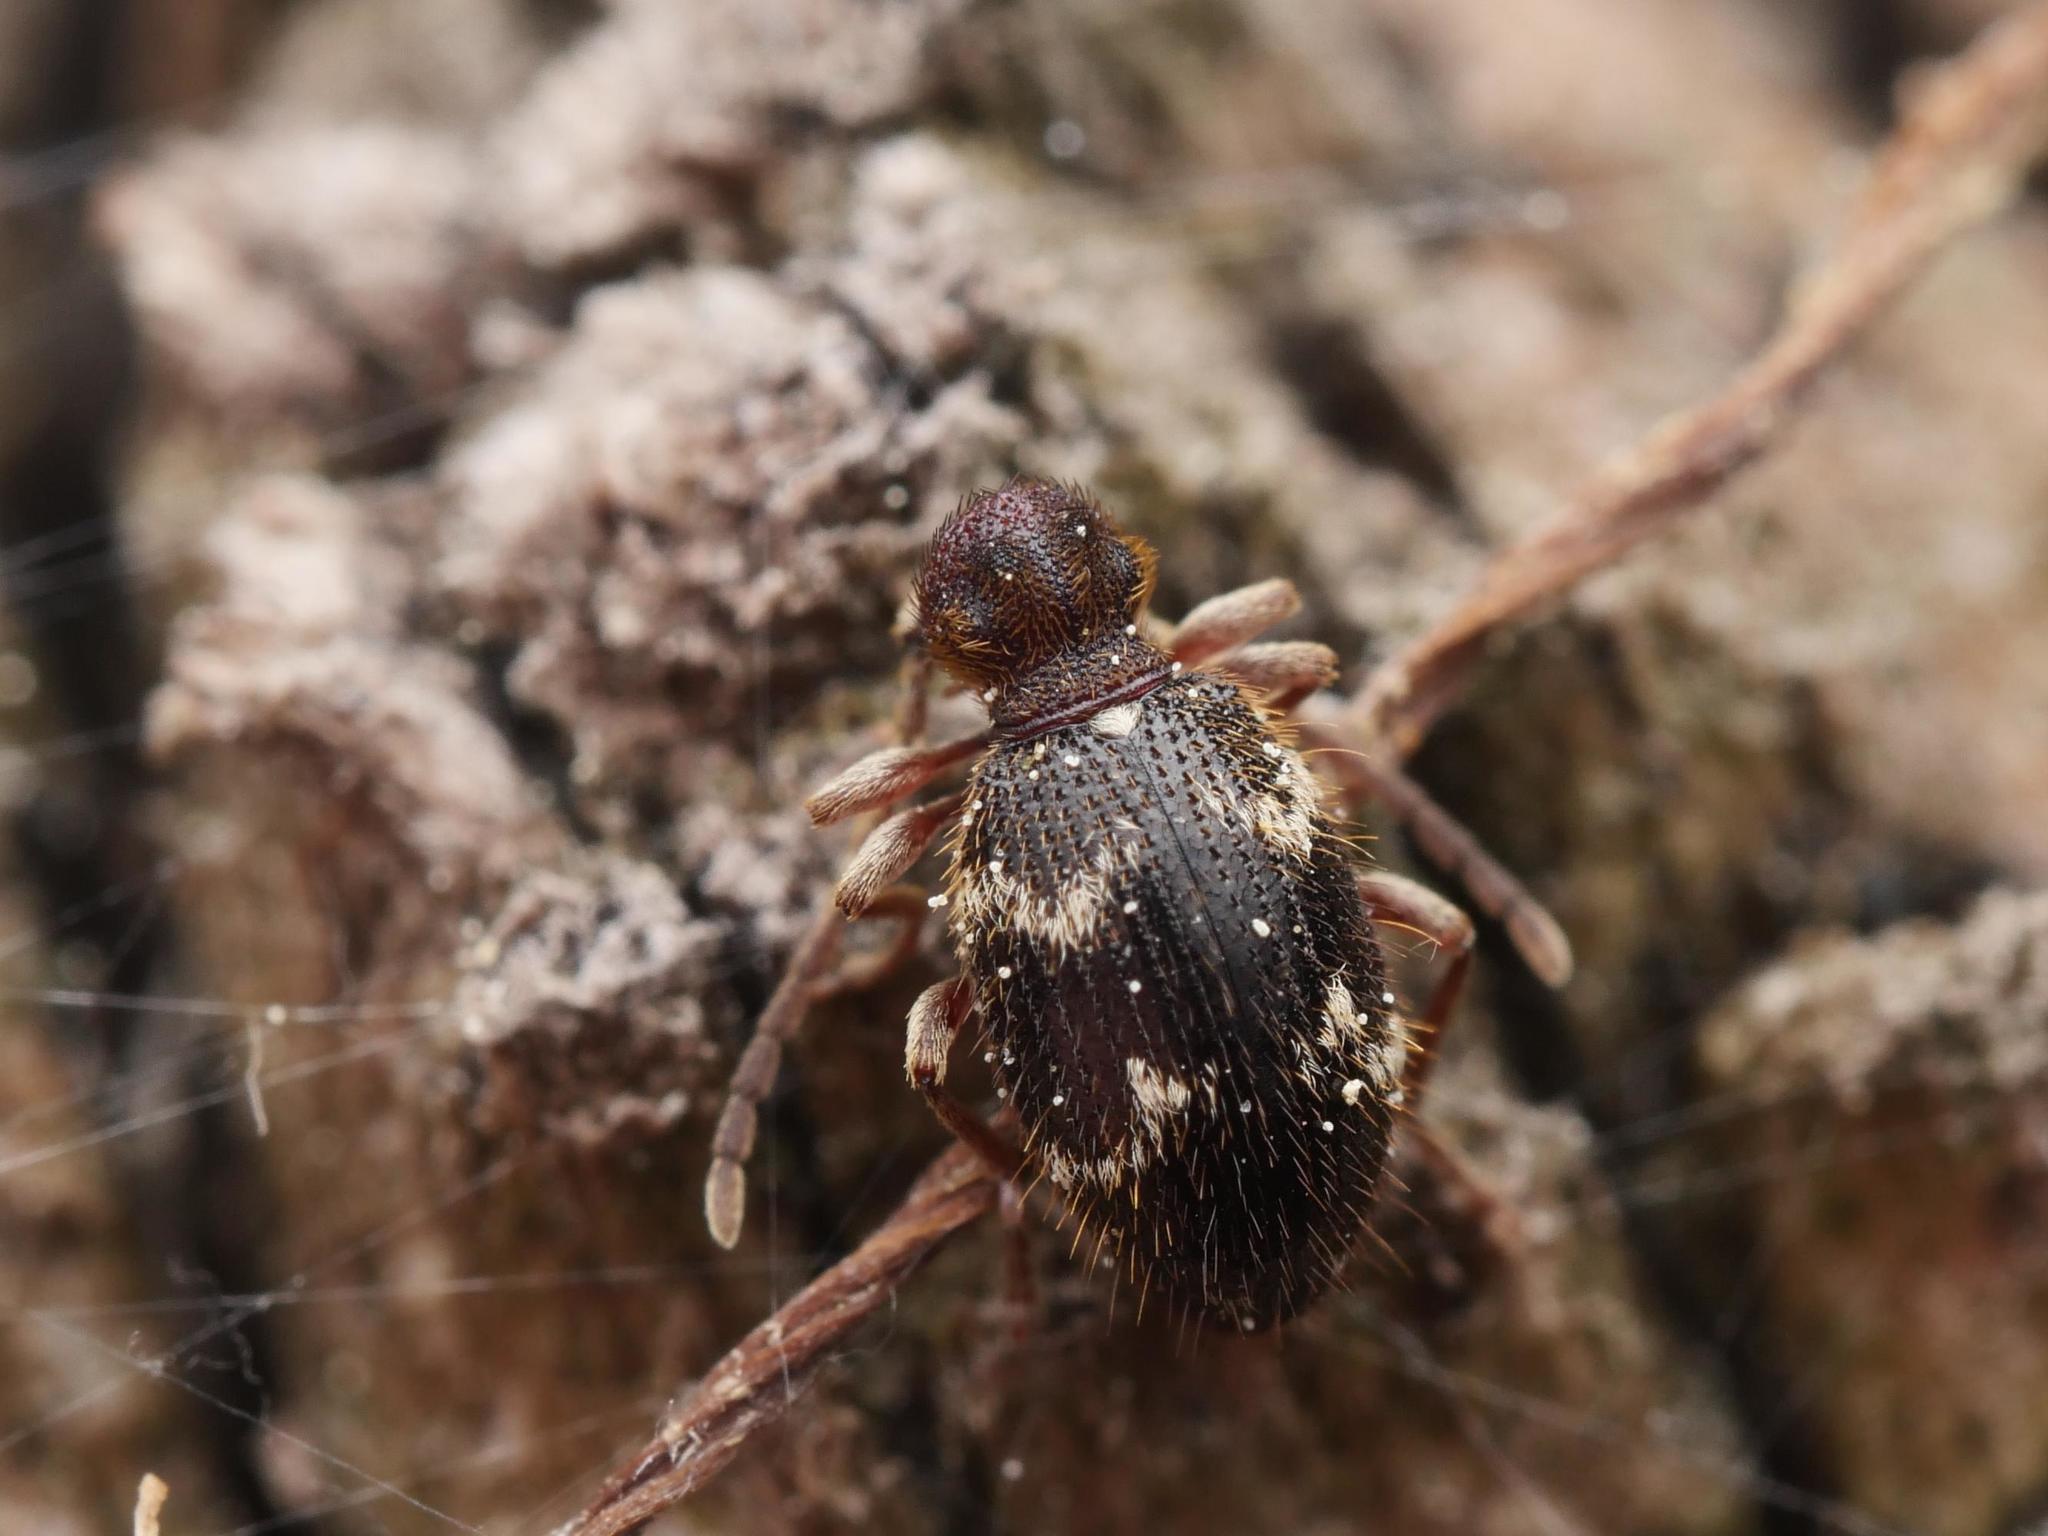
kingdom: Animalia
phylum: Arthropoda
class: Insecta
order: Coleoptera
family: Ptinidae
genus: Ptinus
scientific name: Ptinus rufipes
